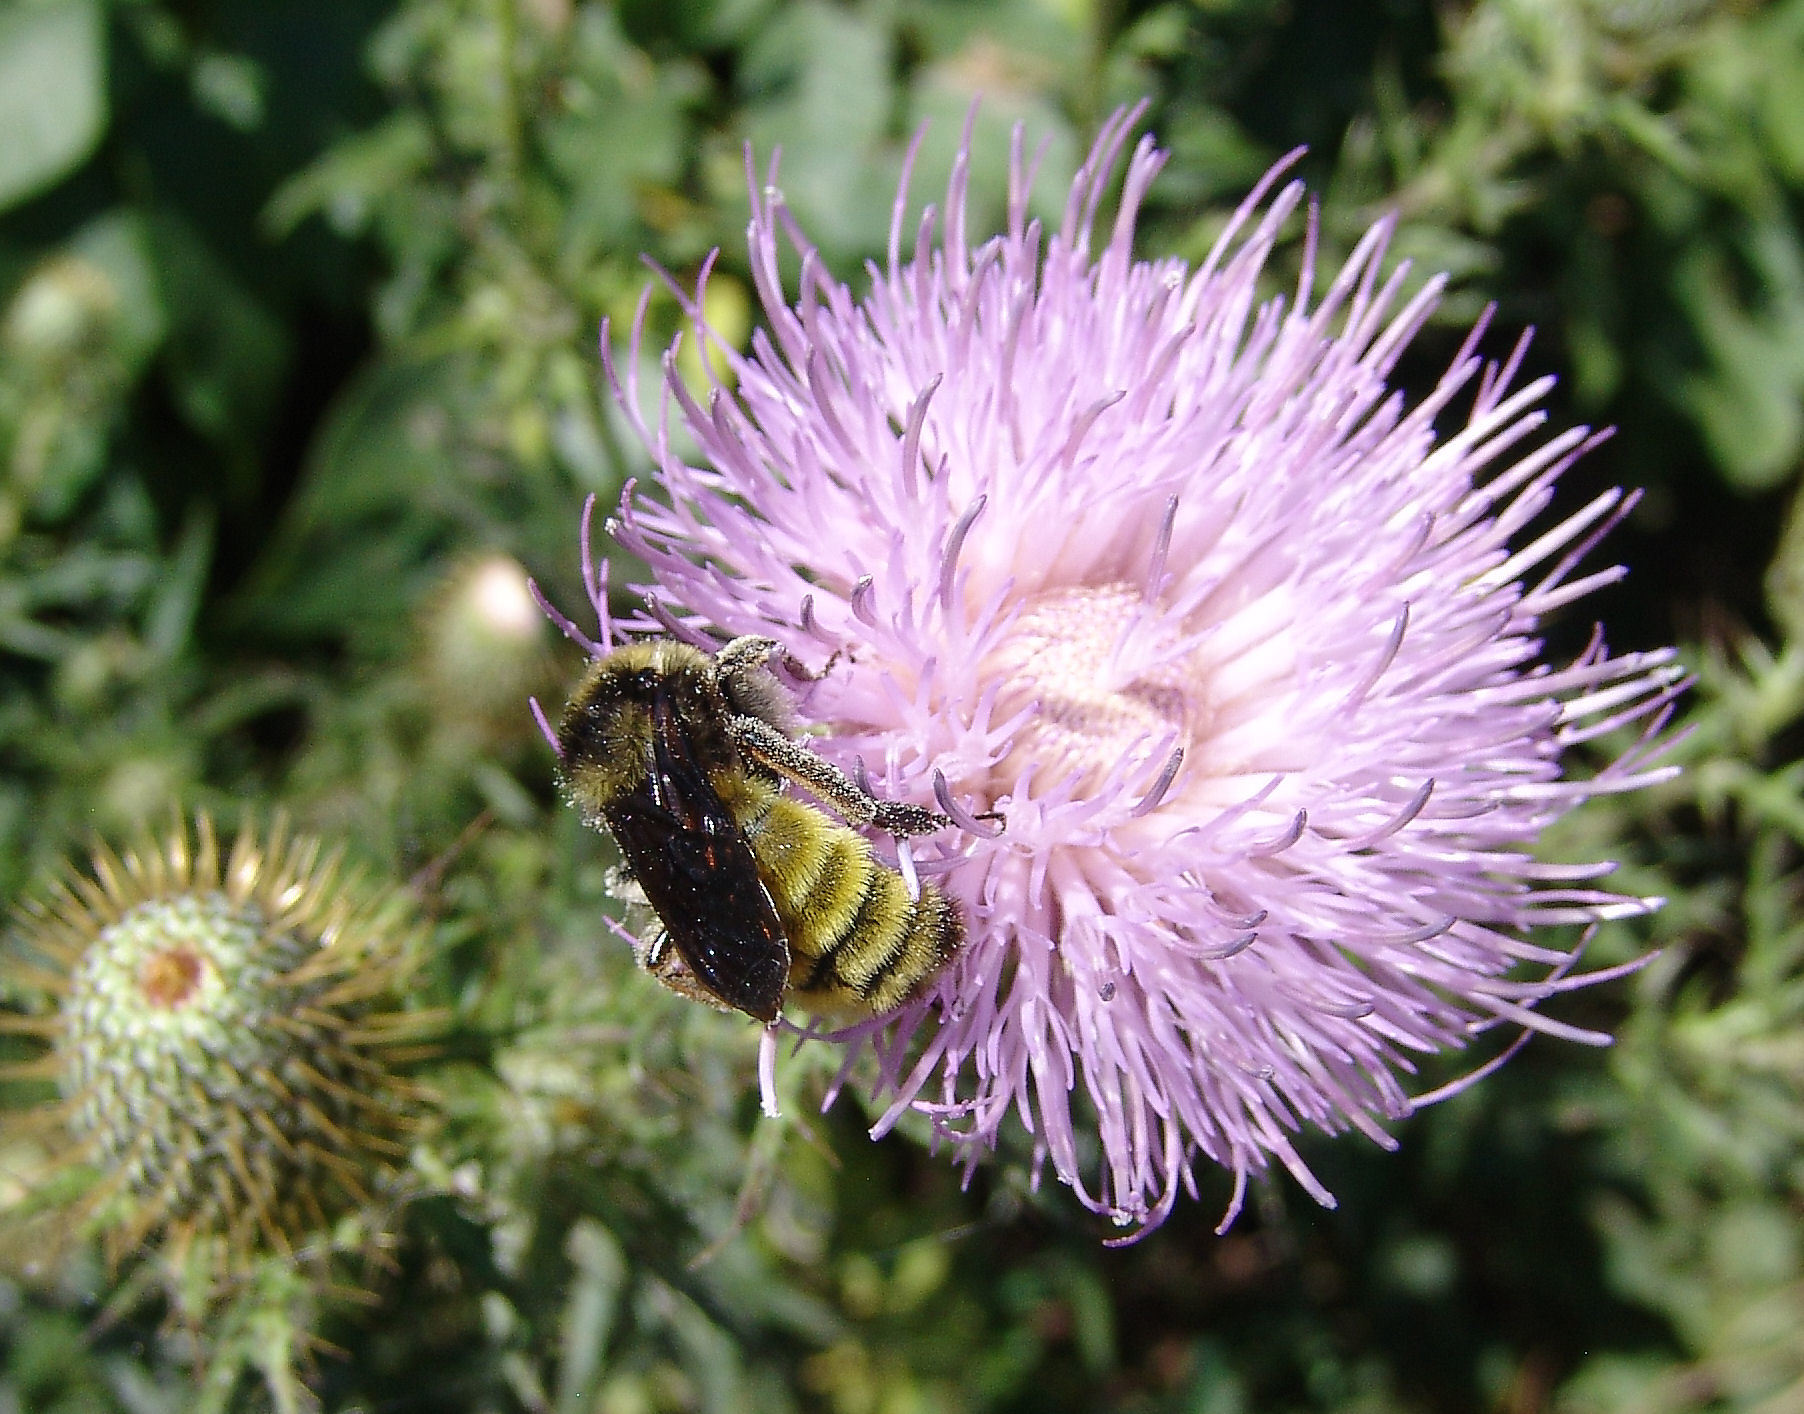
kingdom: Animalia
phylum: Arthropoda
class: Insecta
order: Hymenoptera
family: Apidae
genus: Bombus
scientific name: Bombus pensylvanicus
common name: Bumble bee
